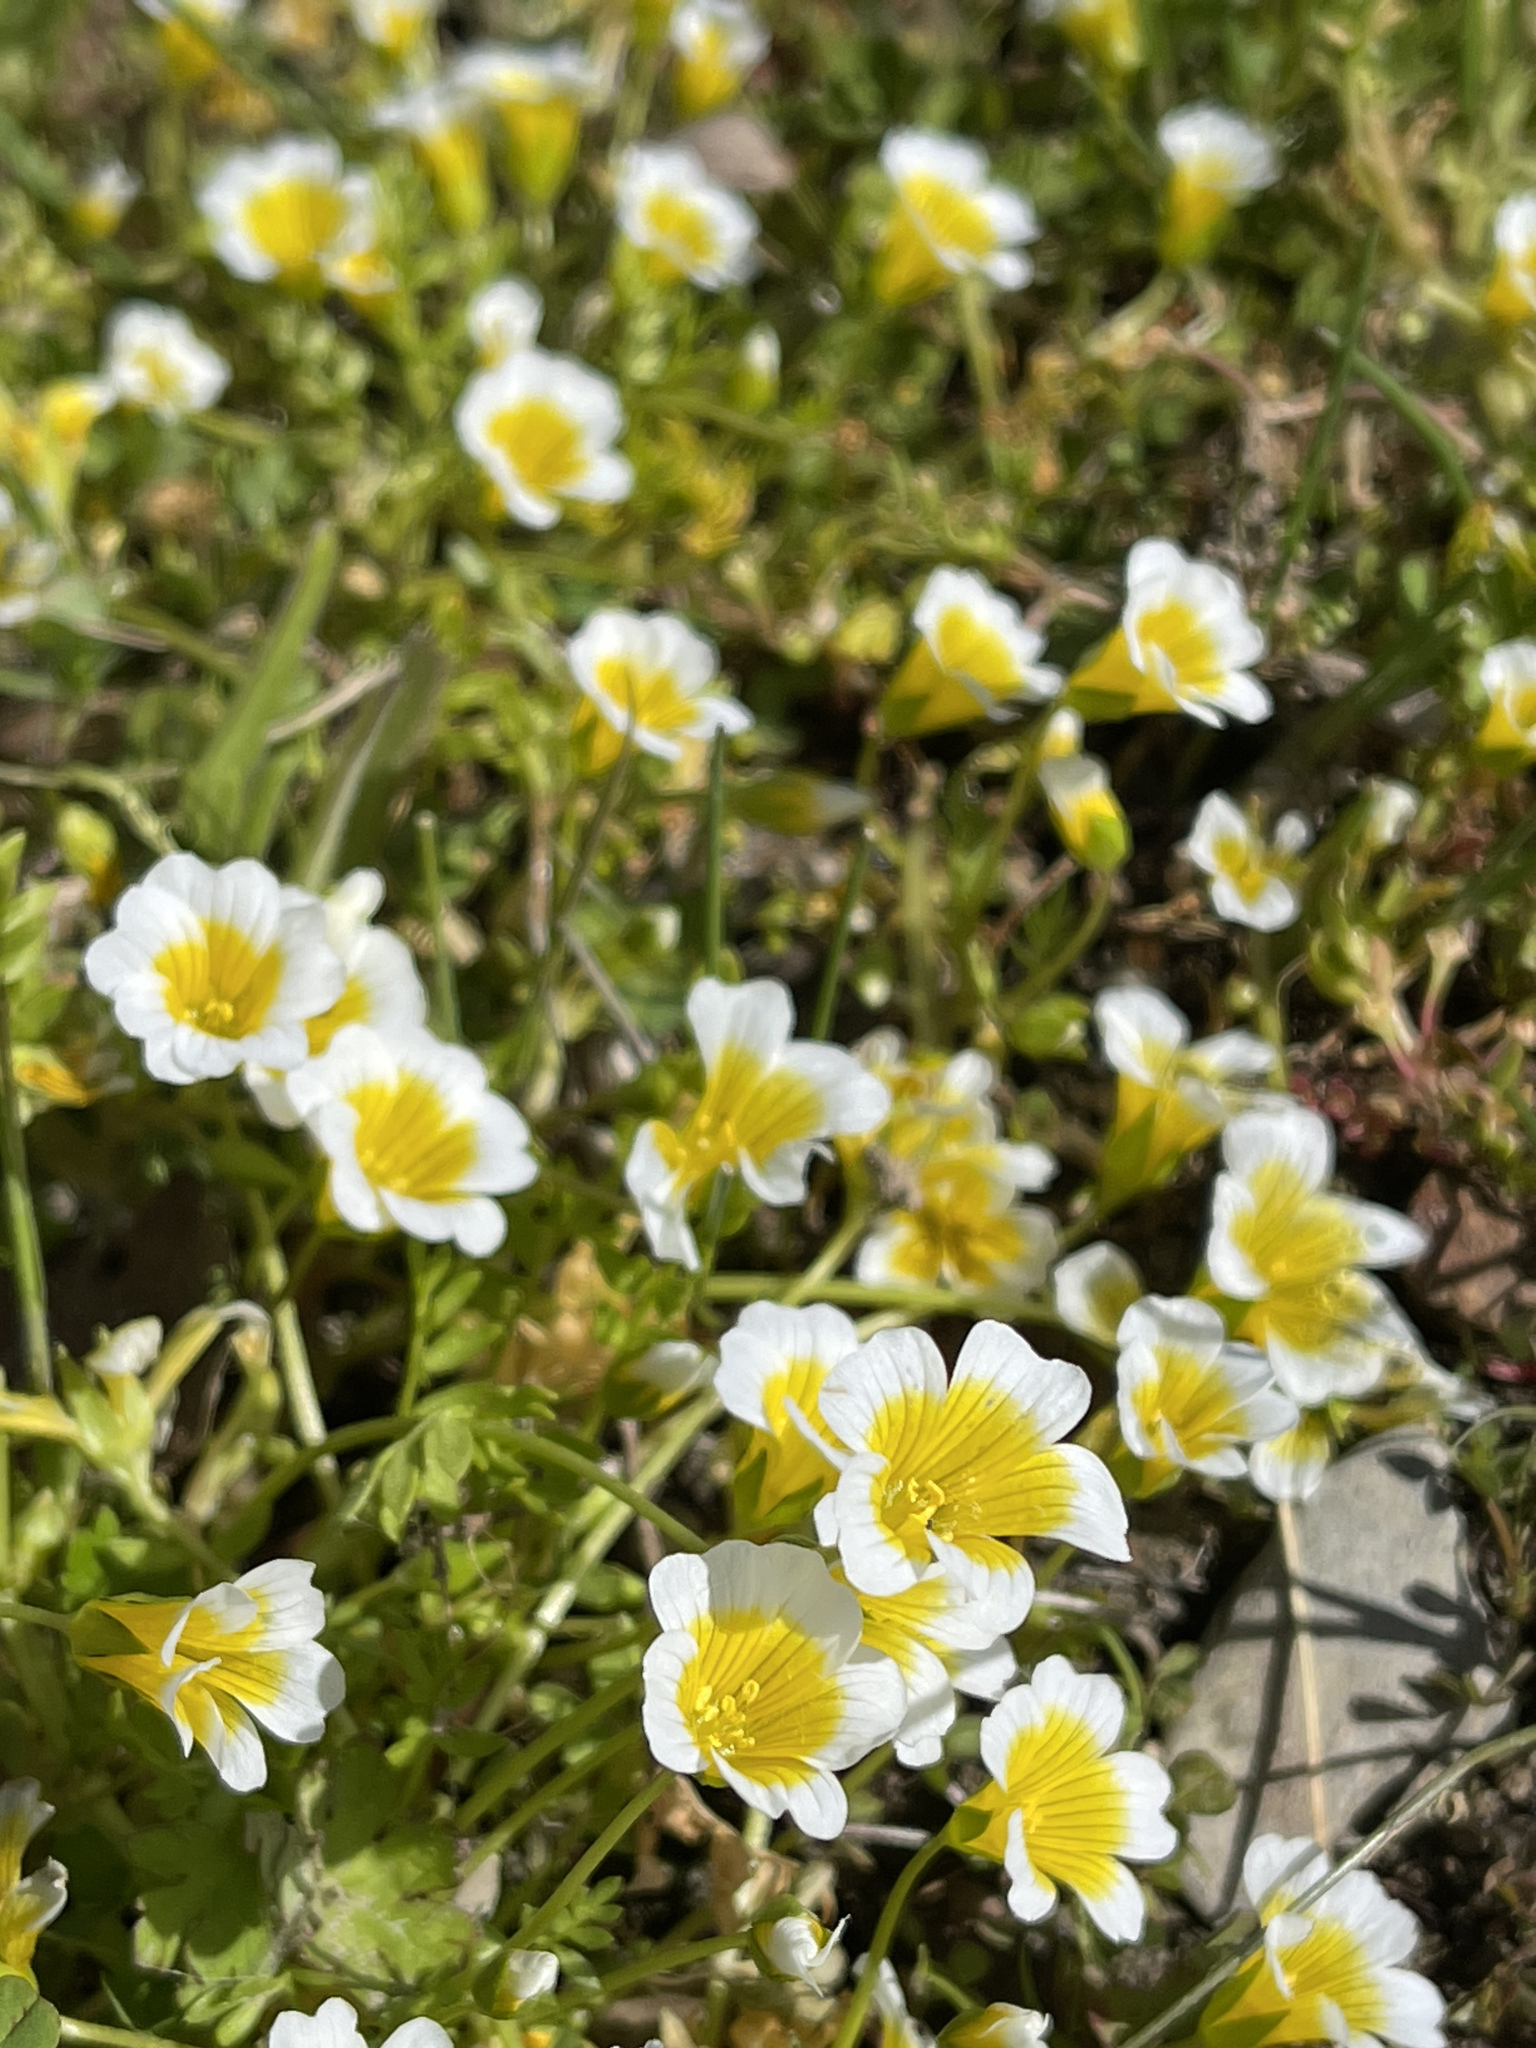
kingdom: Plantae
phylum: Tracheophyta
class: Magnoliopsida
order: Brassicales
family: Limnanthaceae
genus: Limnanthes
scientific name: Limnanthes douglasii
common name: Meadow-foam
